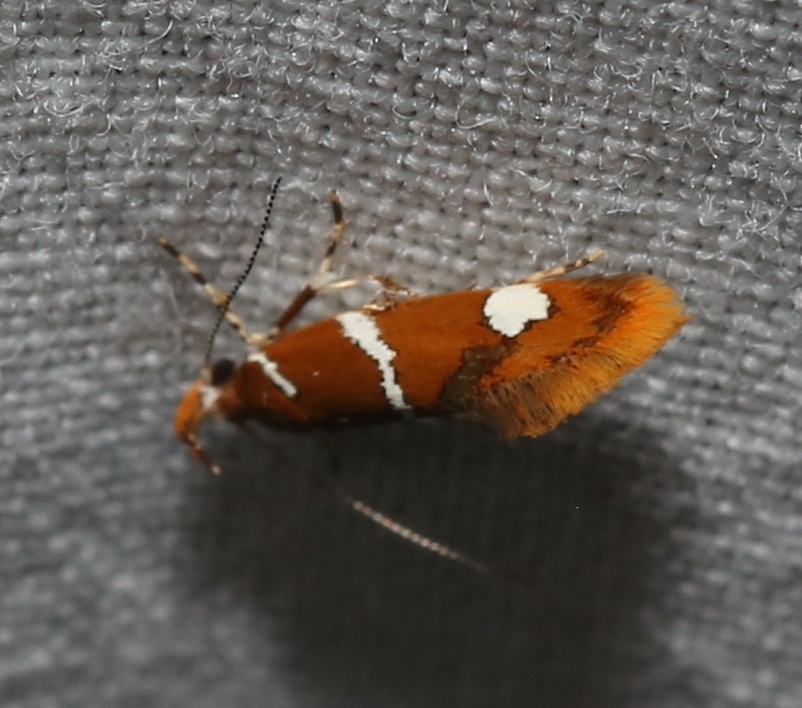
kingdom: Animalia
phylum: Arthropoda
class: Insecta
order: Lepidoptera
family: Oecophoridae
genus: Promalactis
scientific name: Promalactis suzukiella
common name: Moth
